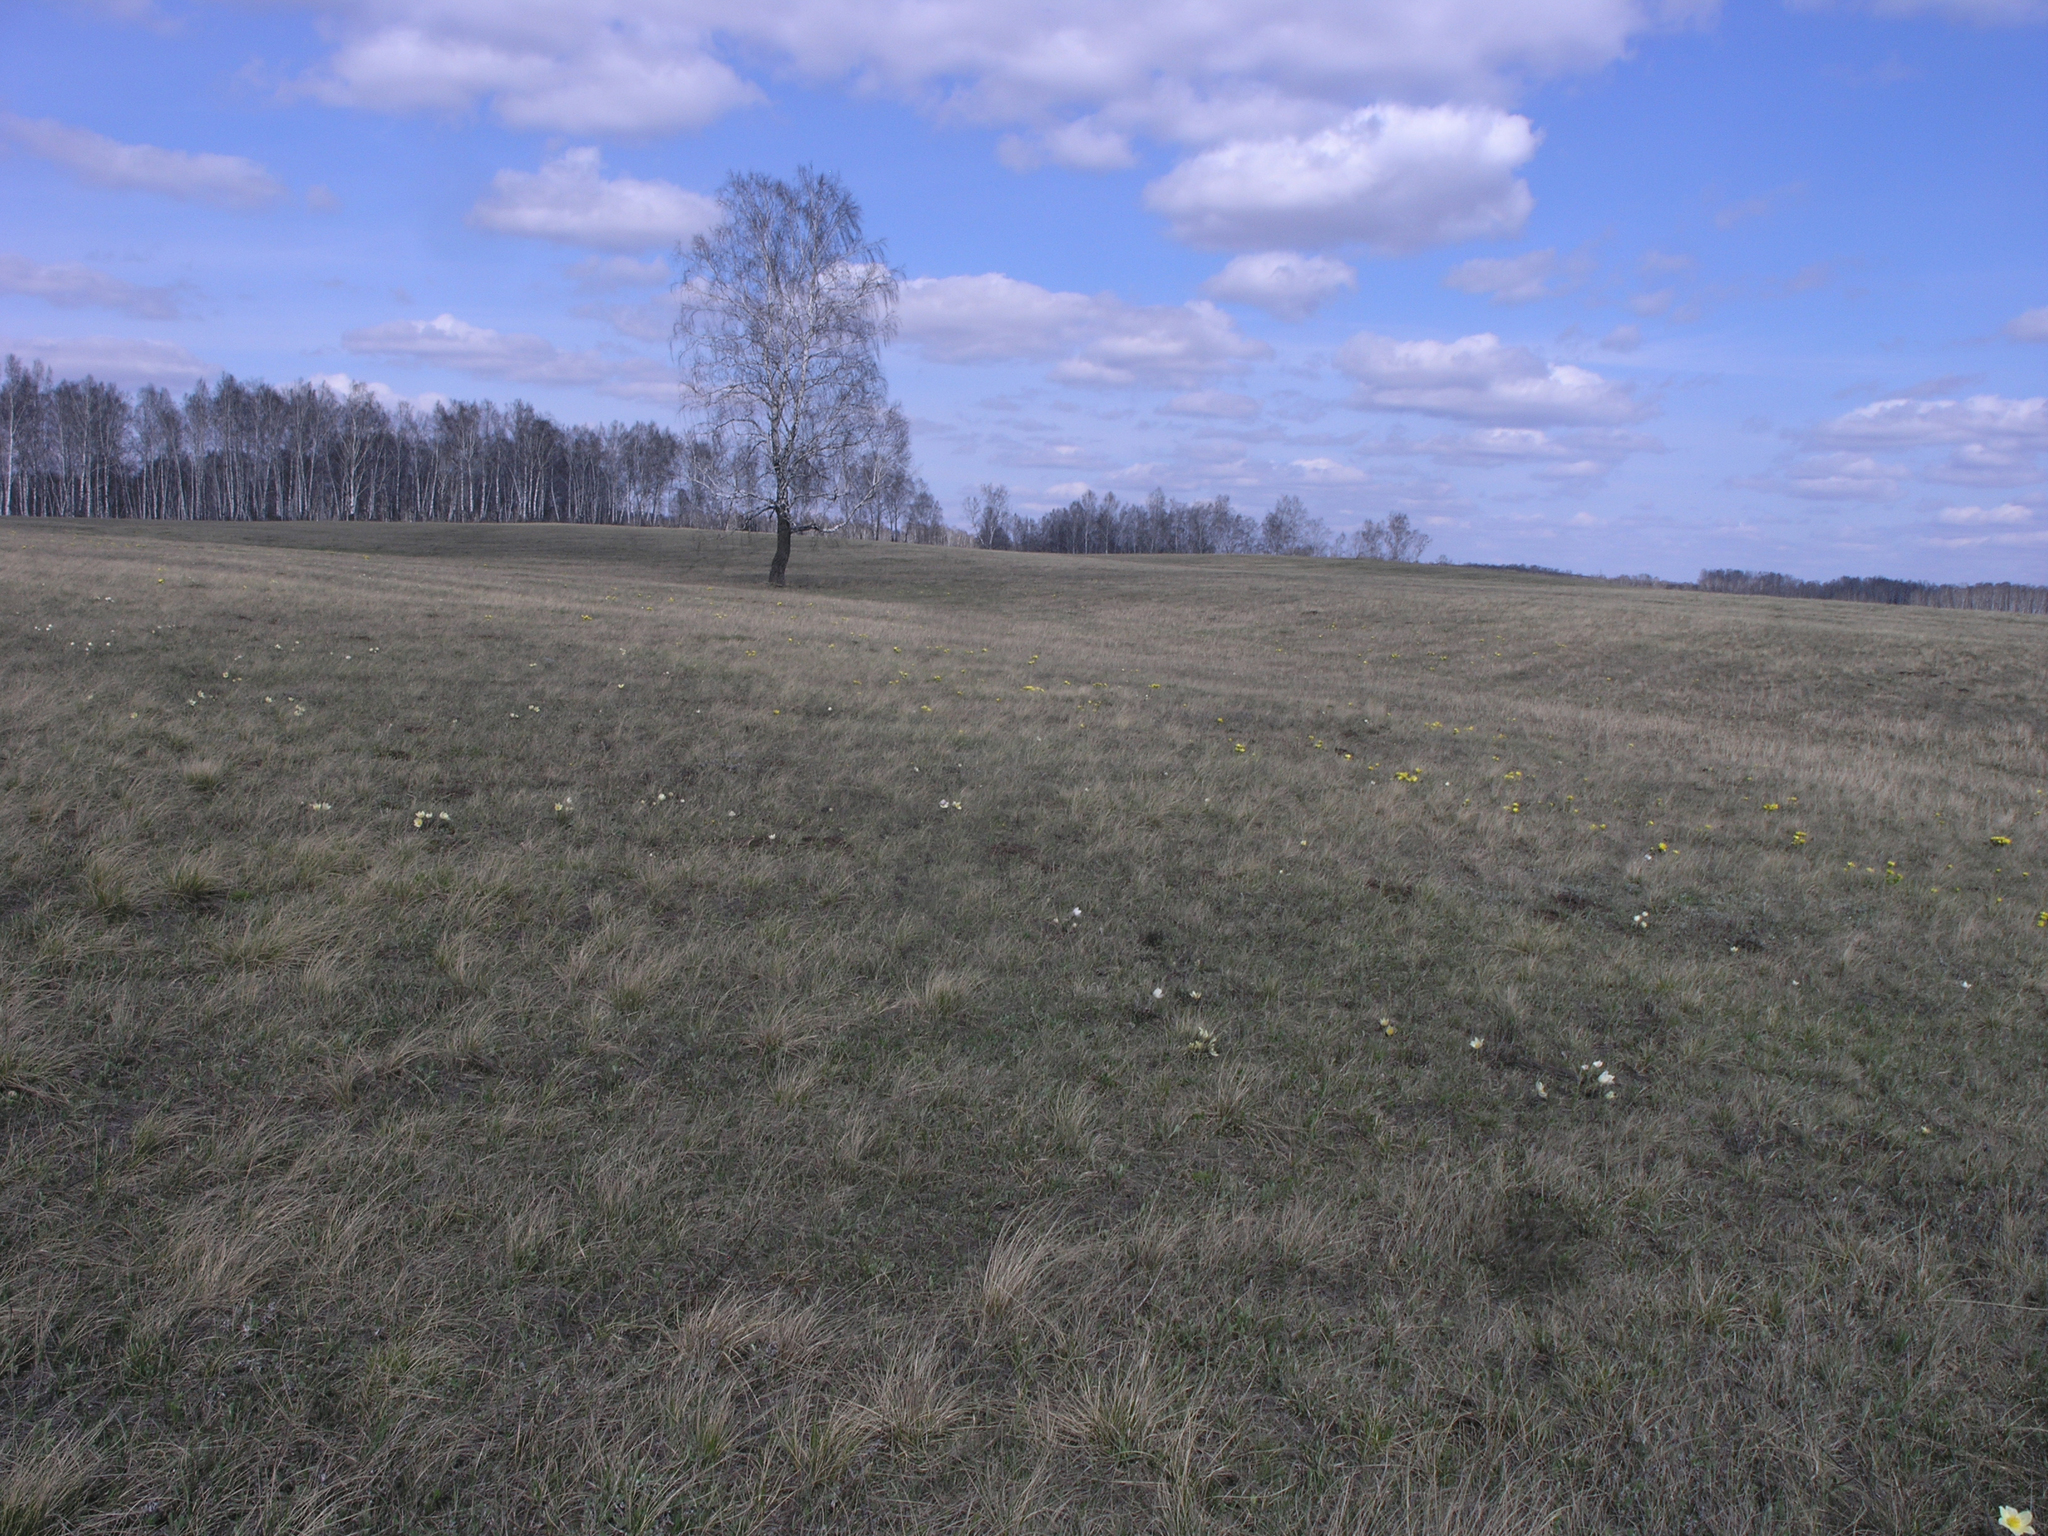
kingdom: Plantae
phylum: Tracheophyta
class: Magnoliopsida
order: Fagales
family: Betulaceae
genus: Betula
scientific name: Betula pendula
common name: Silver birch
